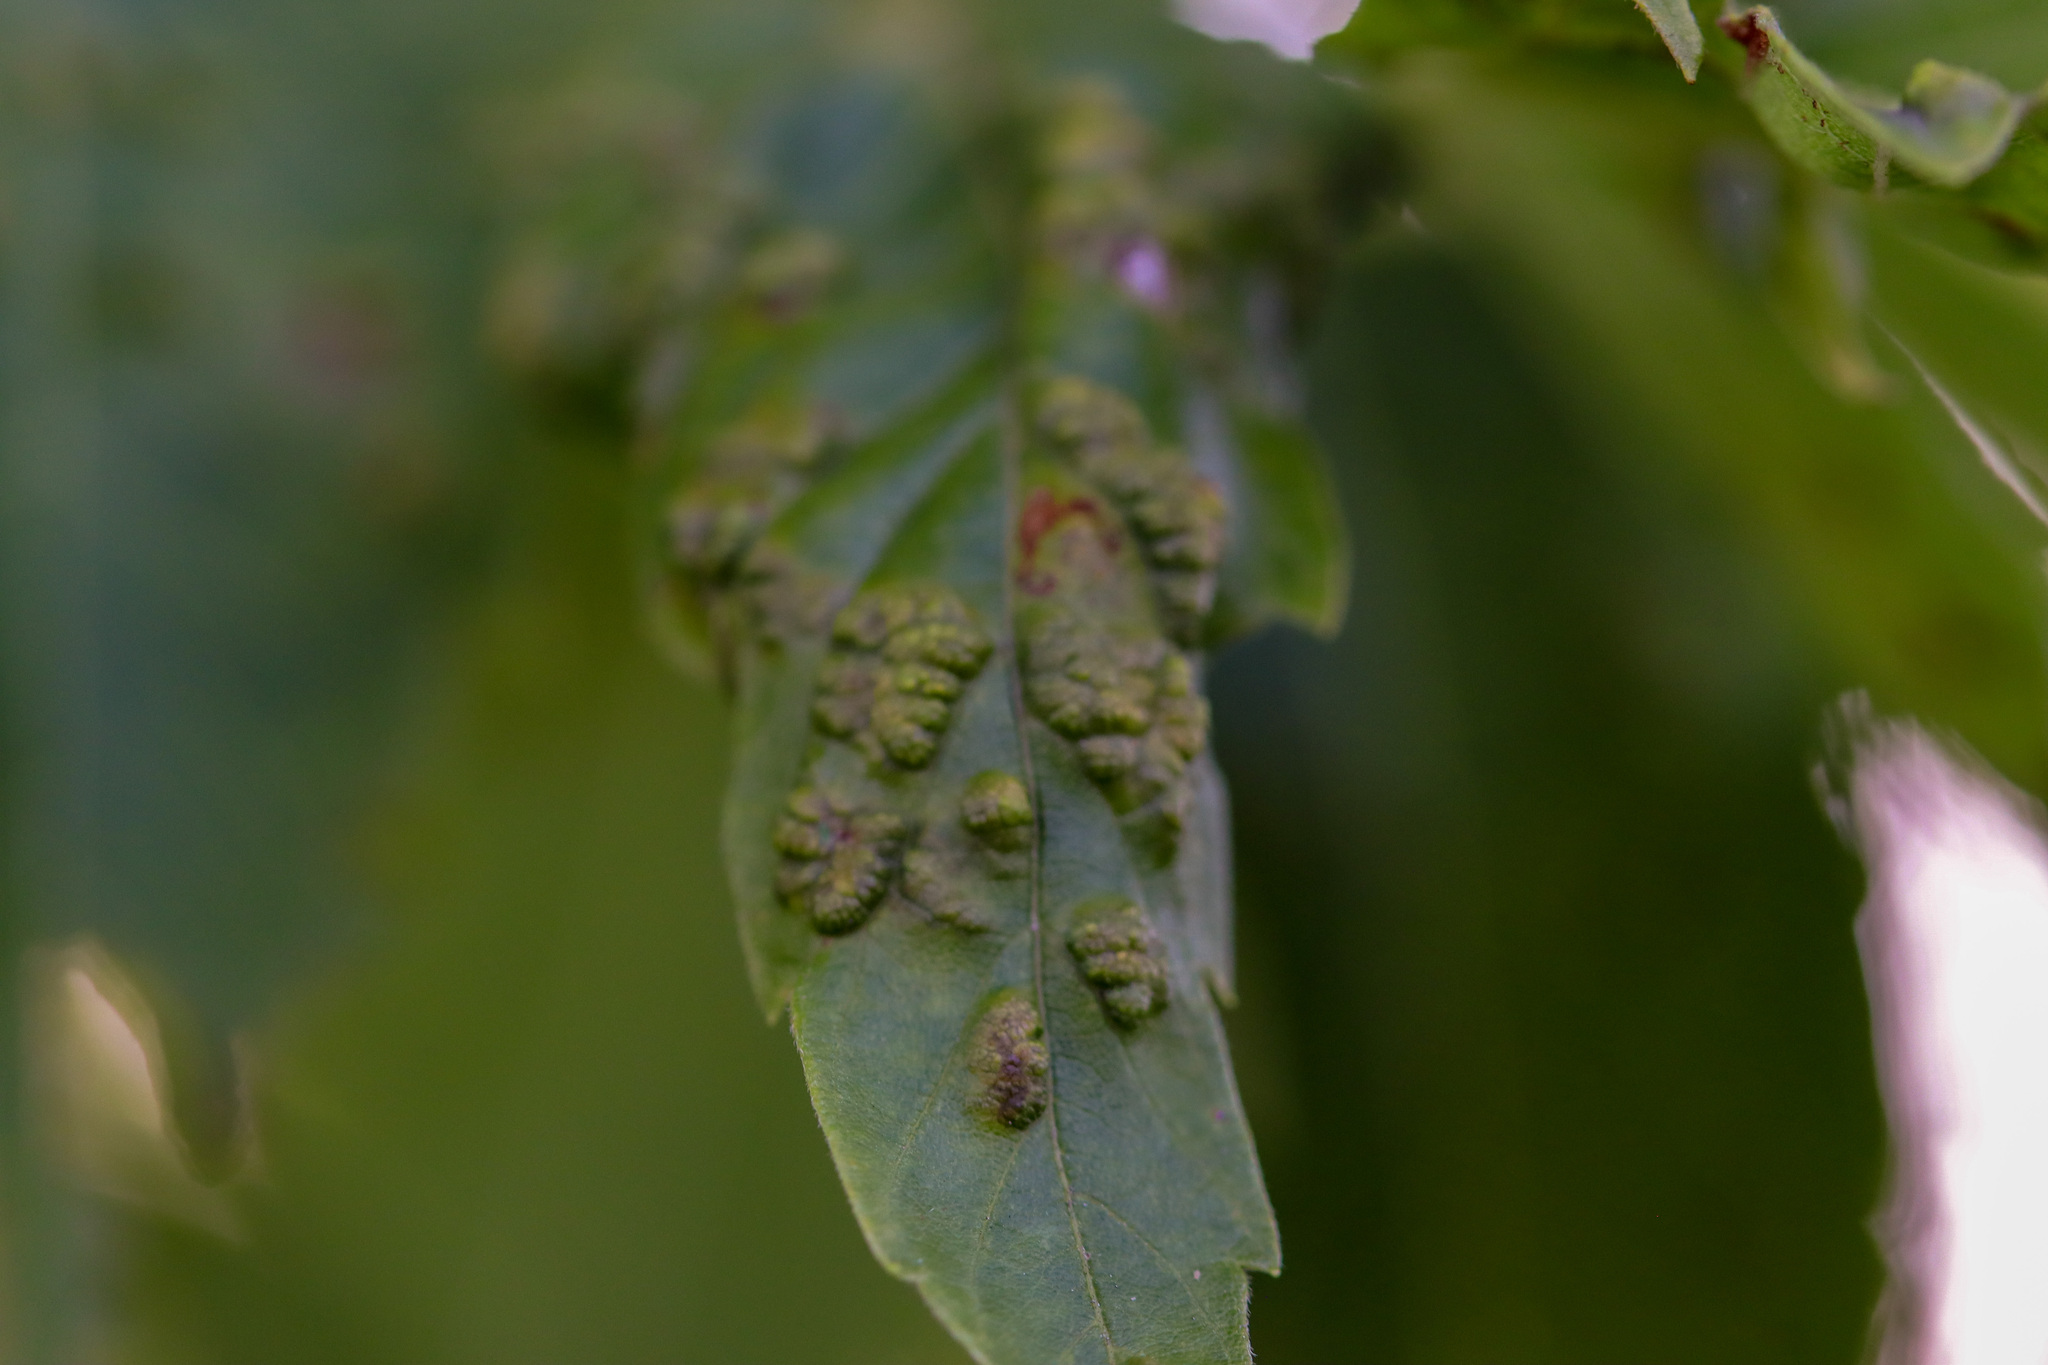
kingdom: Animalia
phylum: Arthropoda
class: Arachnida
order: Trombidiformes
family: Eriophyidae
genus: Aceria
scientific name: Aceria
